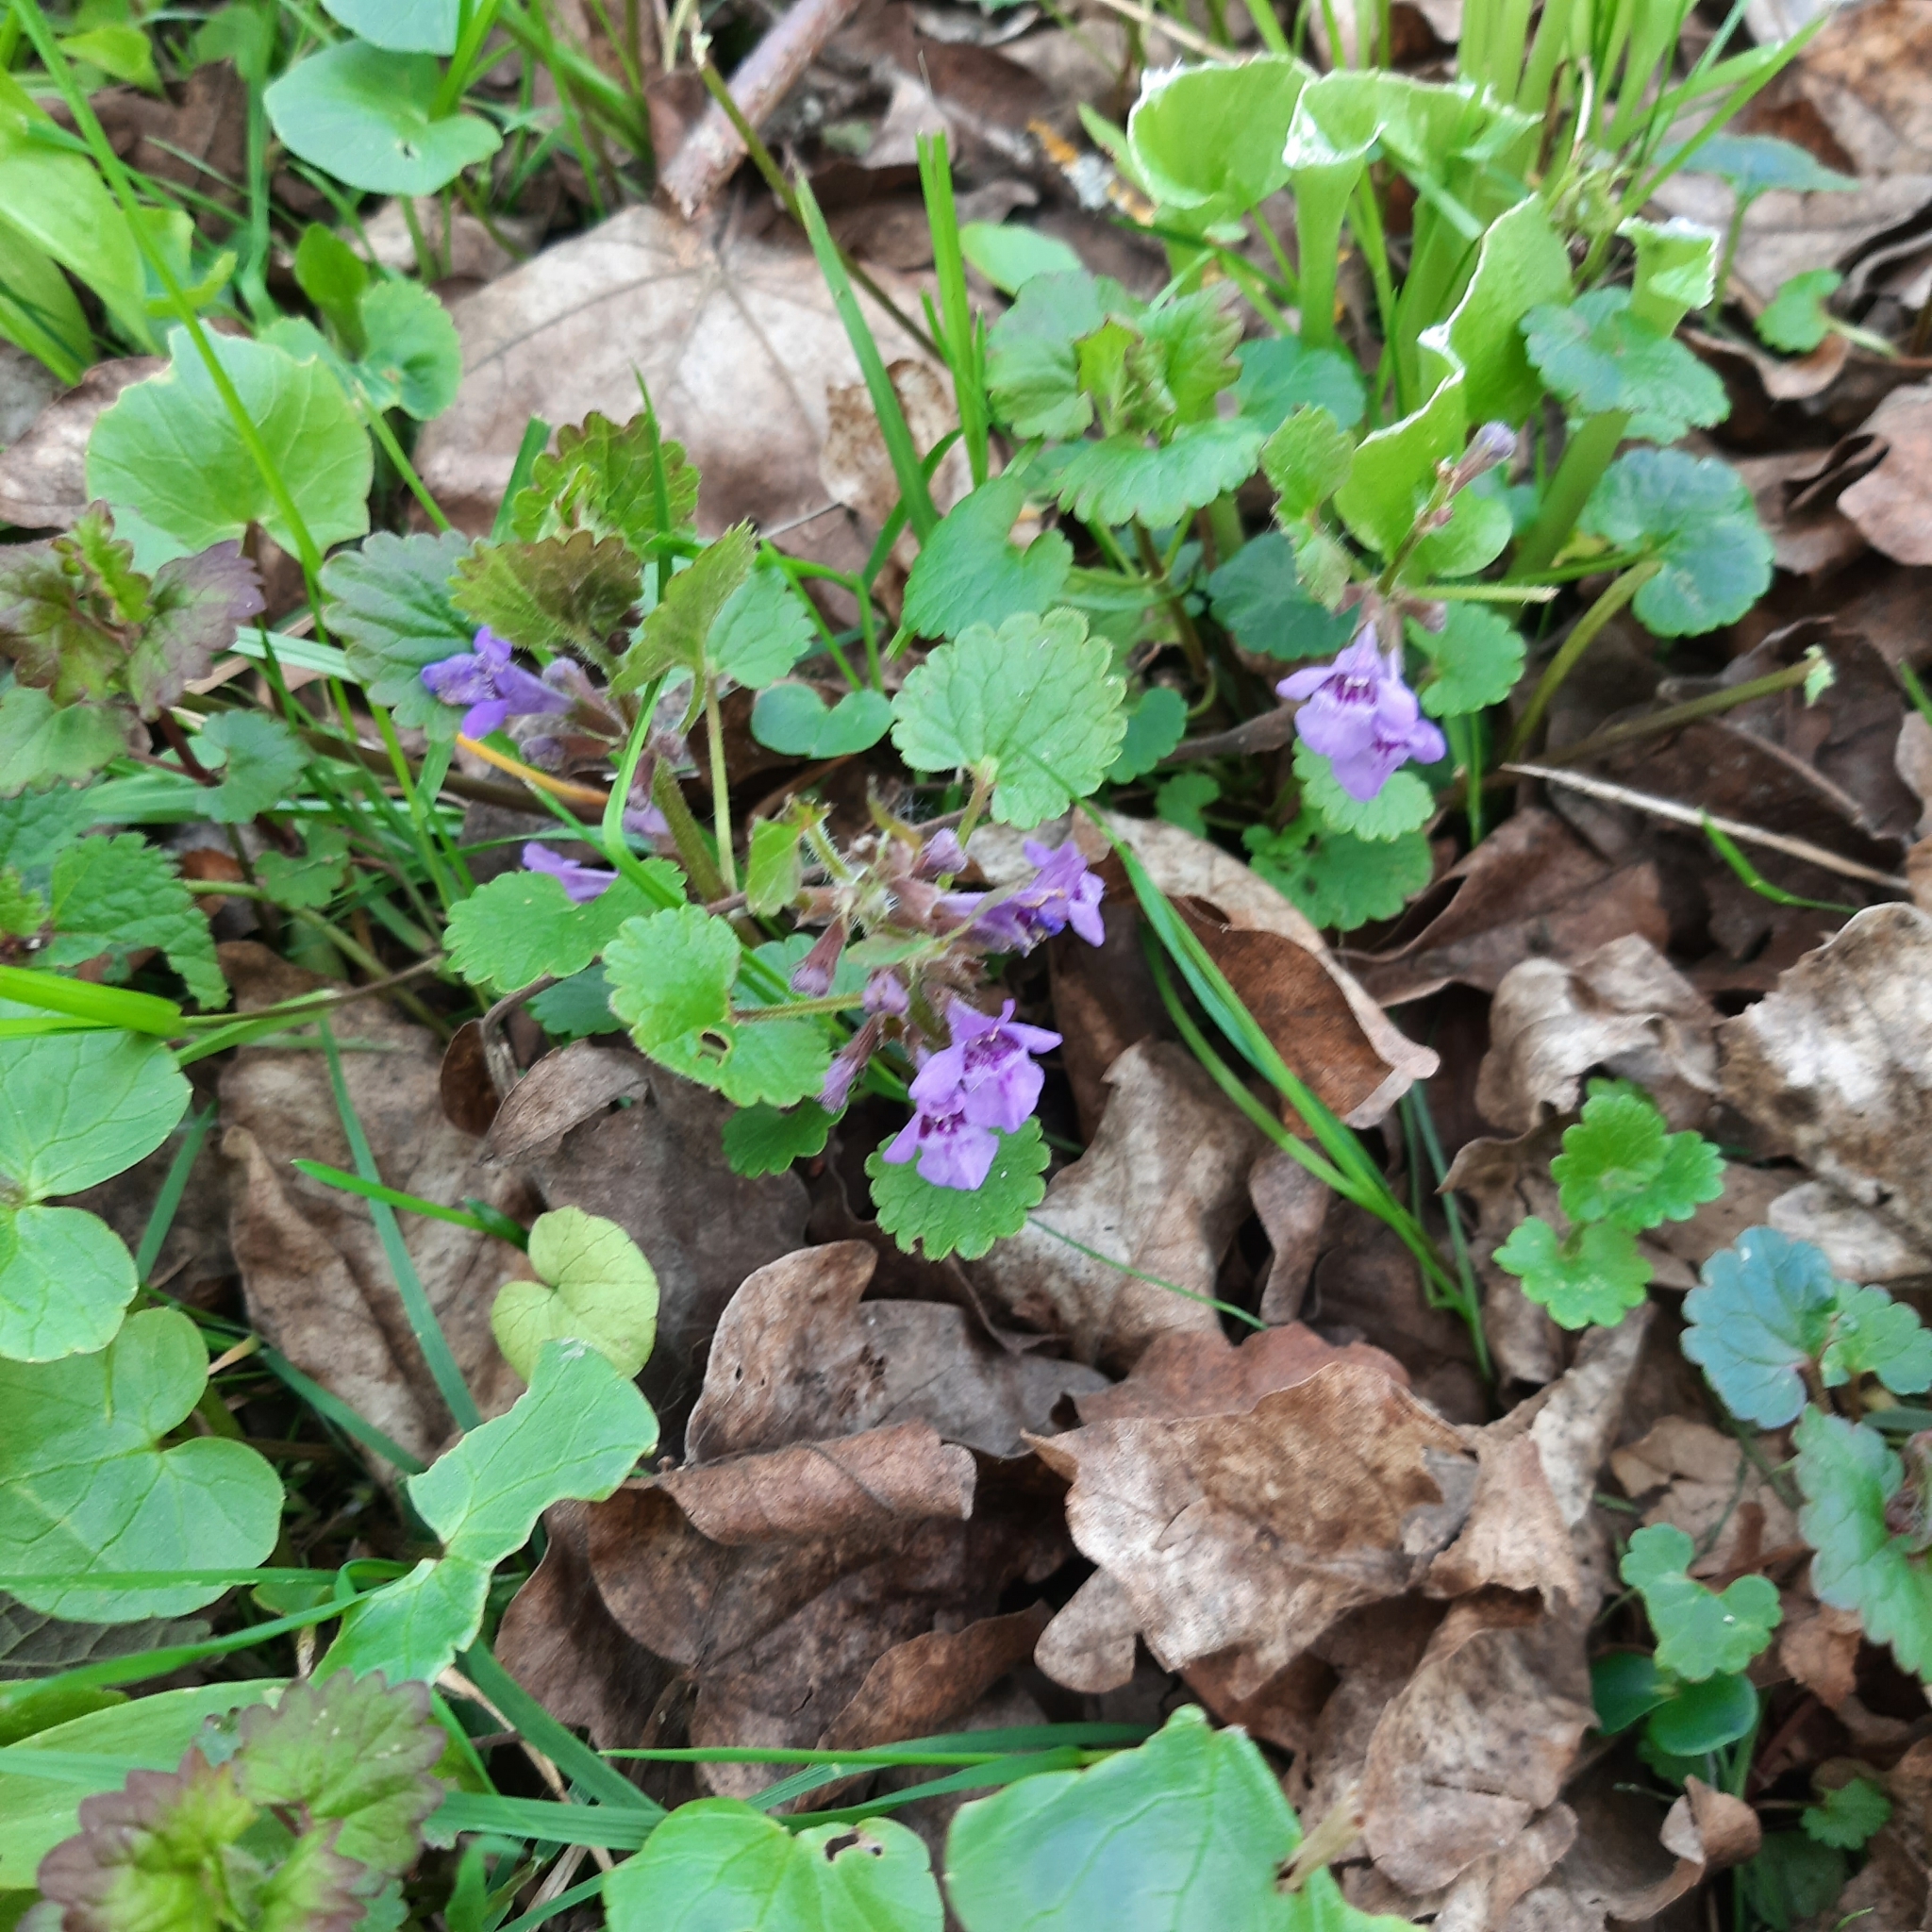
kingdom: Plantae
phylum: Tracheophyta
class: Magnoliopsida
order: Lamiales
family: Lamiaceae
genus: Glechoma
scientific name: Glechoma hederacea
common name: Ground ivy
